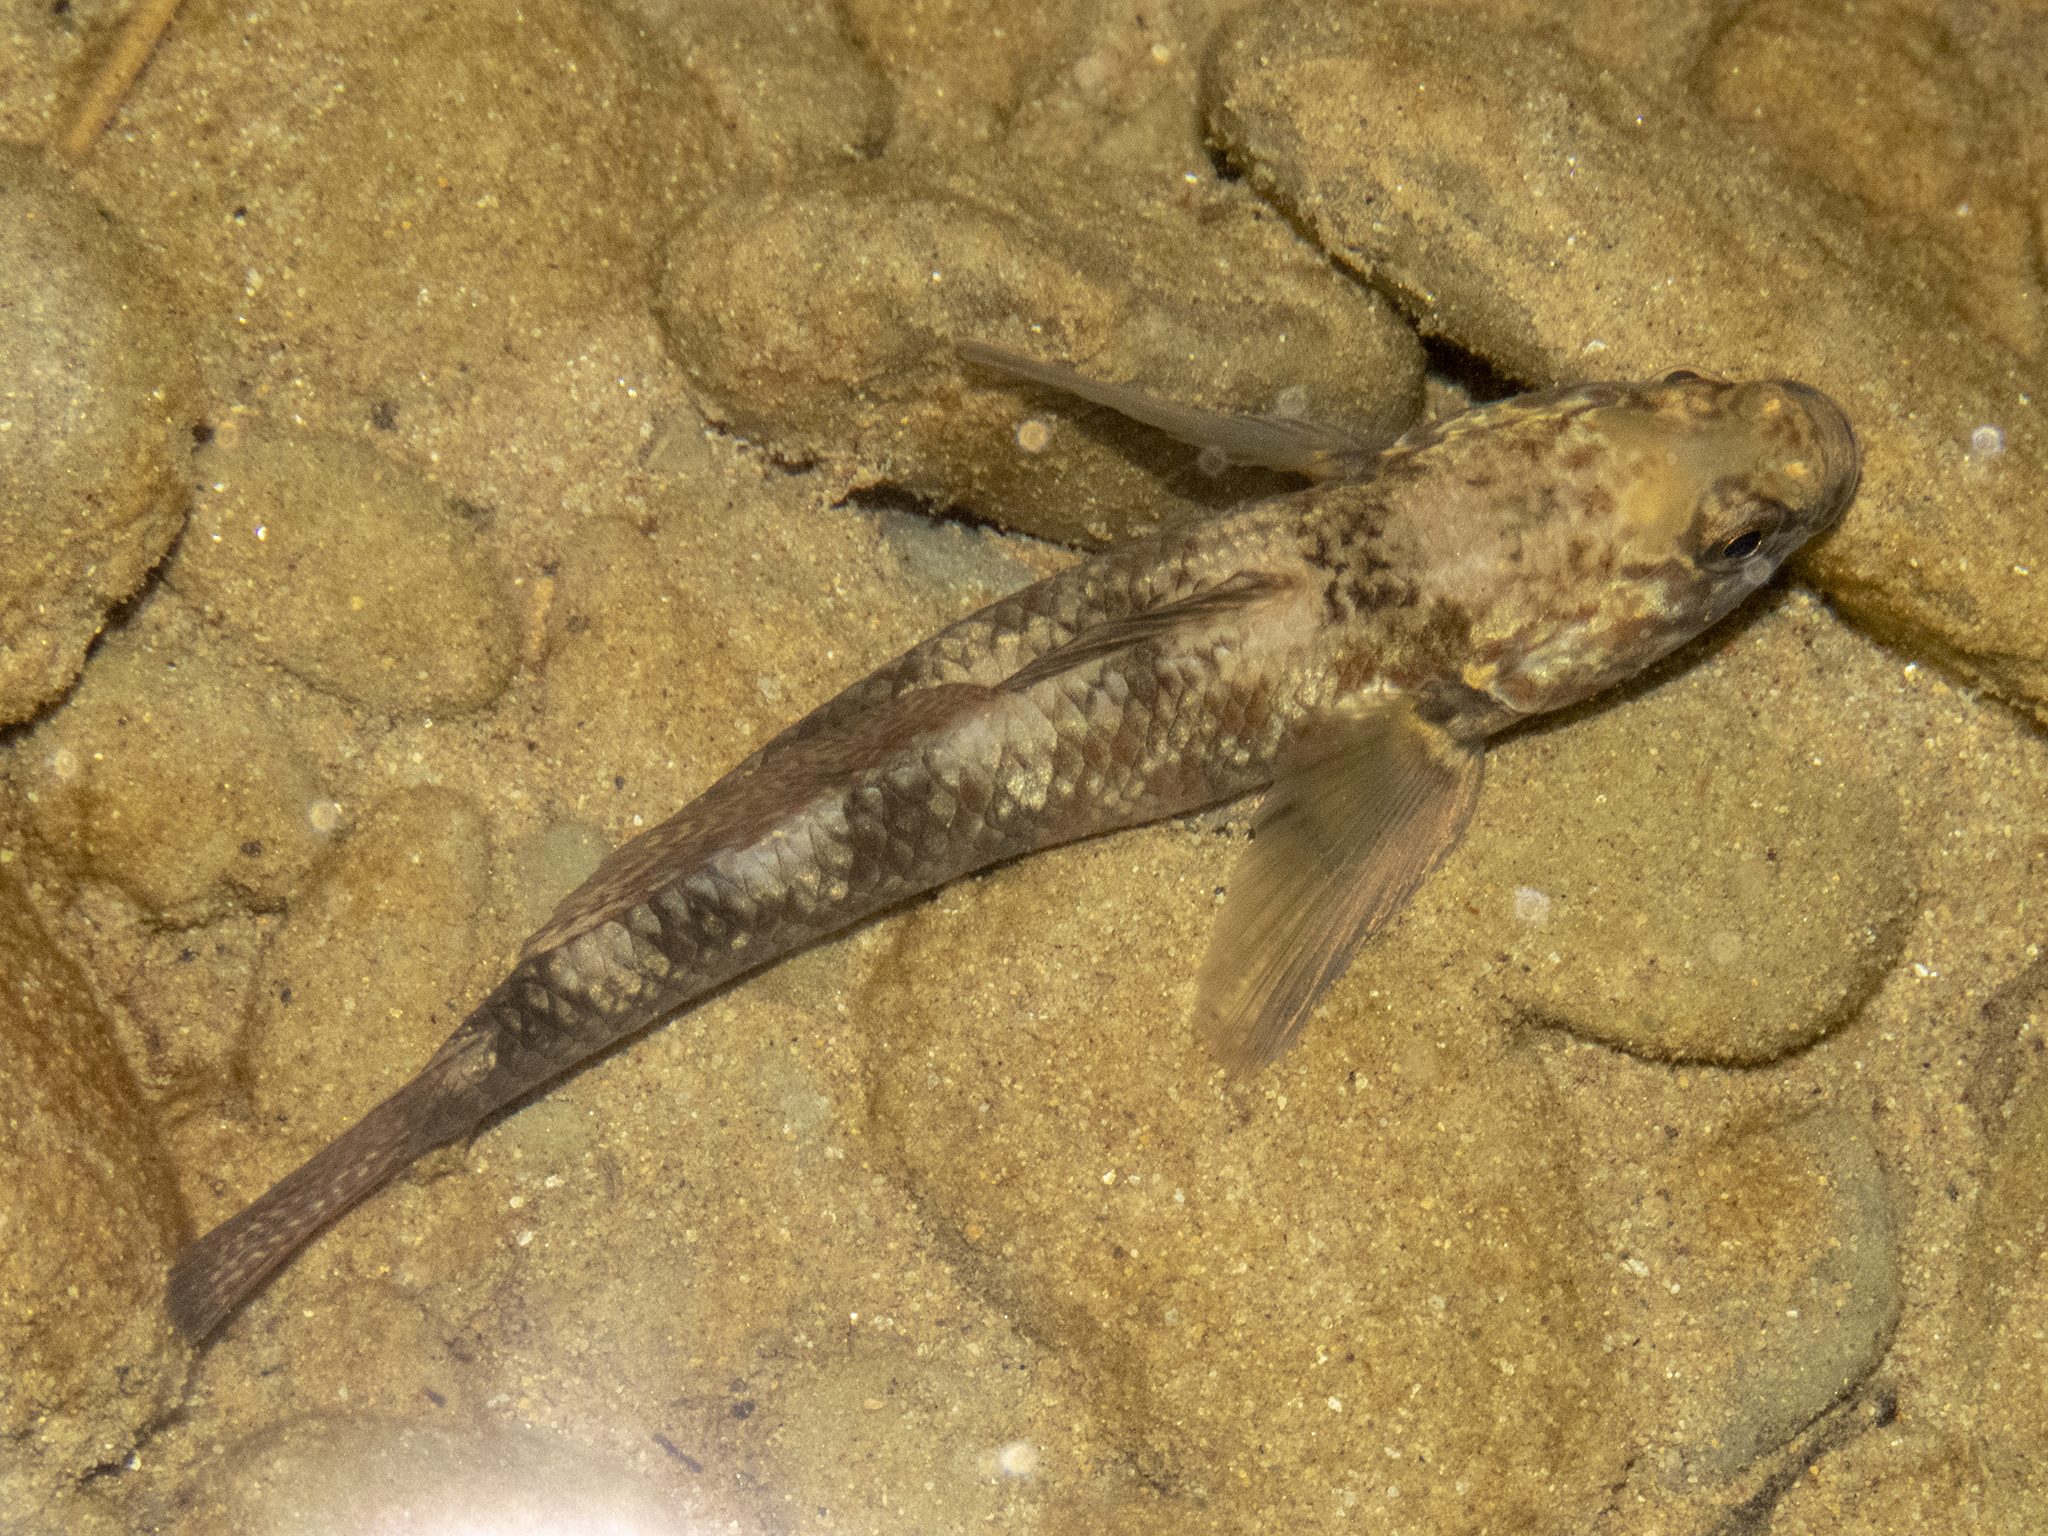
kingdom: Animalia
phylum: Chordata
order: Perciformes
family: Eleotridae
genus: Gobiomorphus
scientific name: Gobiomorphus huttoni
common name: Redfin bully
